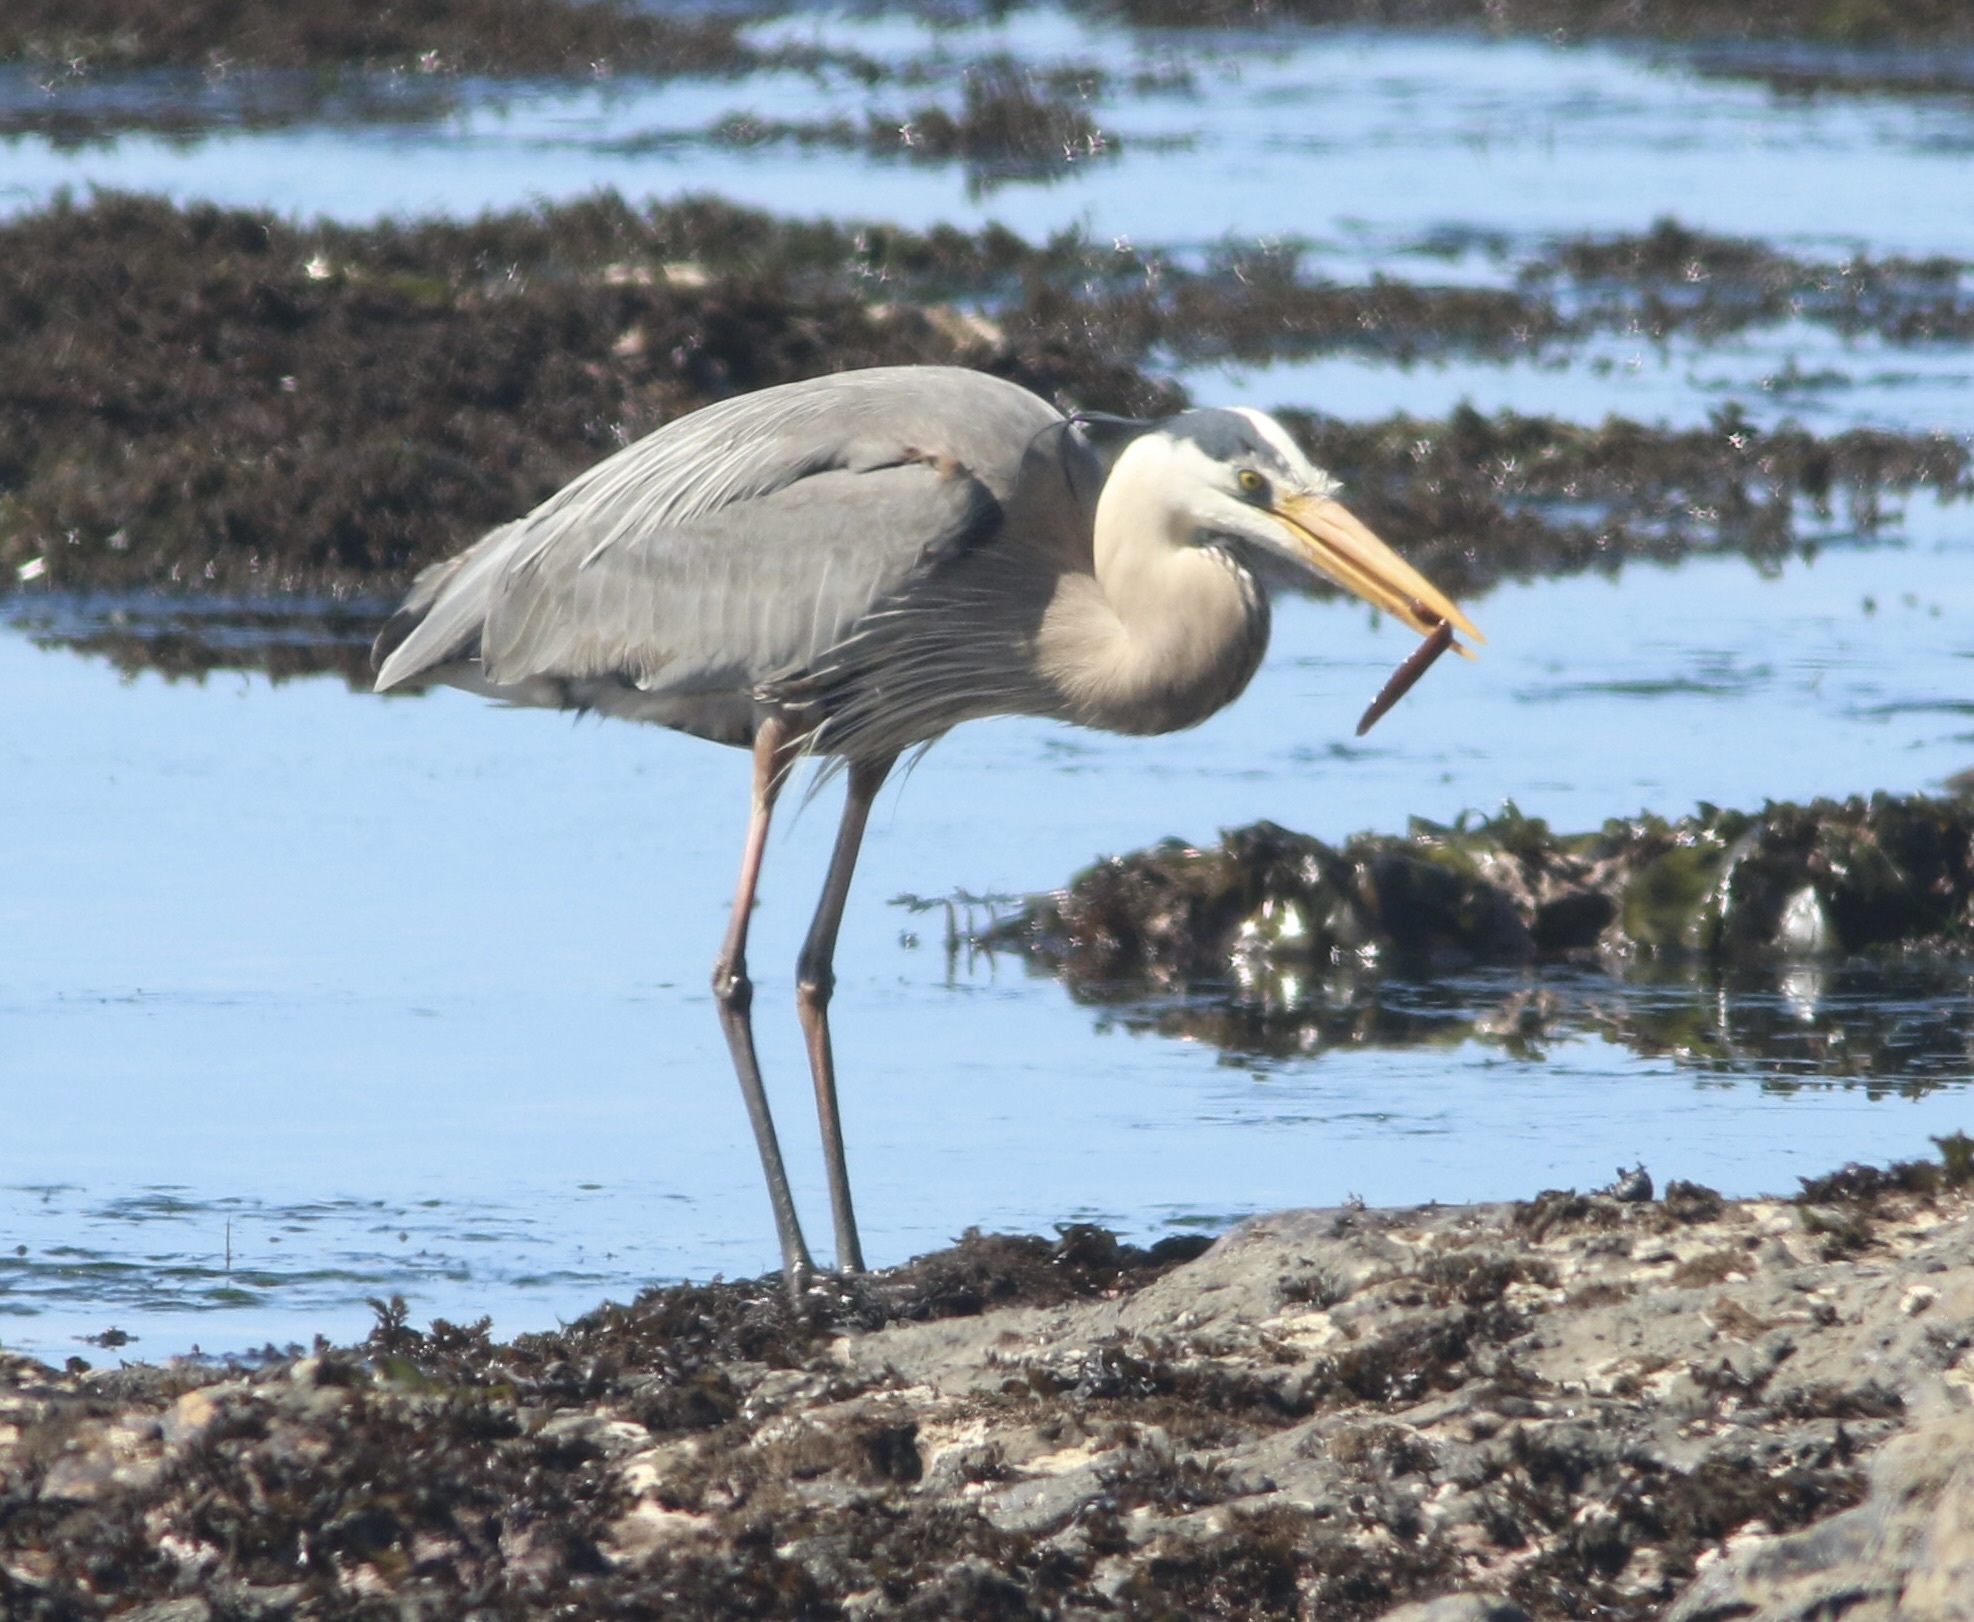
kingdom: Animalia
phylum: Chordata
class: Aves
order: Pelecaniformes
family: Ardeidae
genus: Ardea
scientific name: Ardea herodias
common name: Great blue heron
